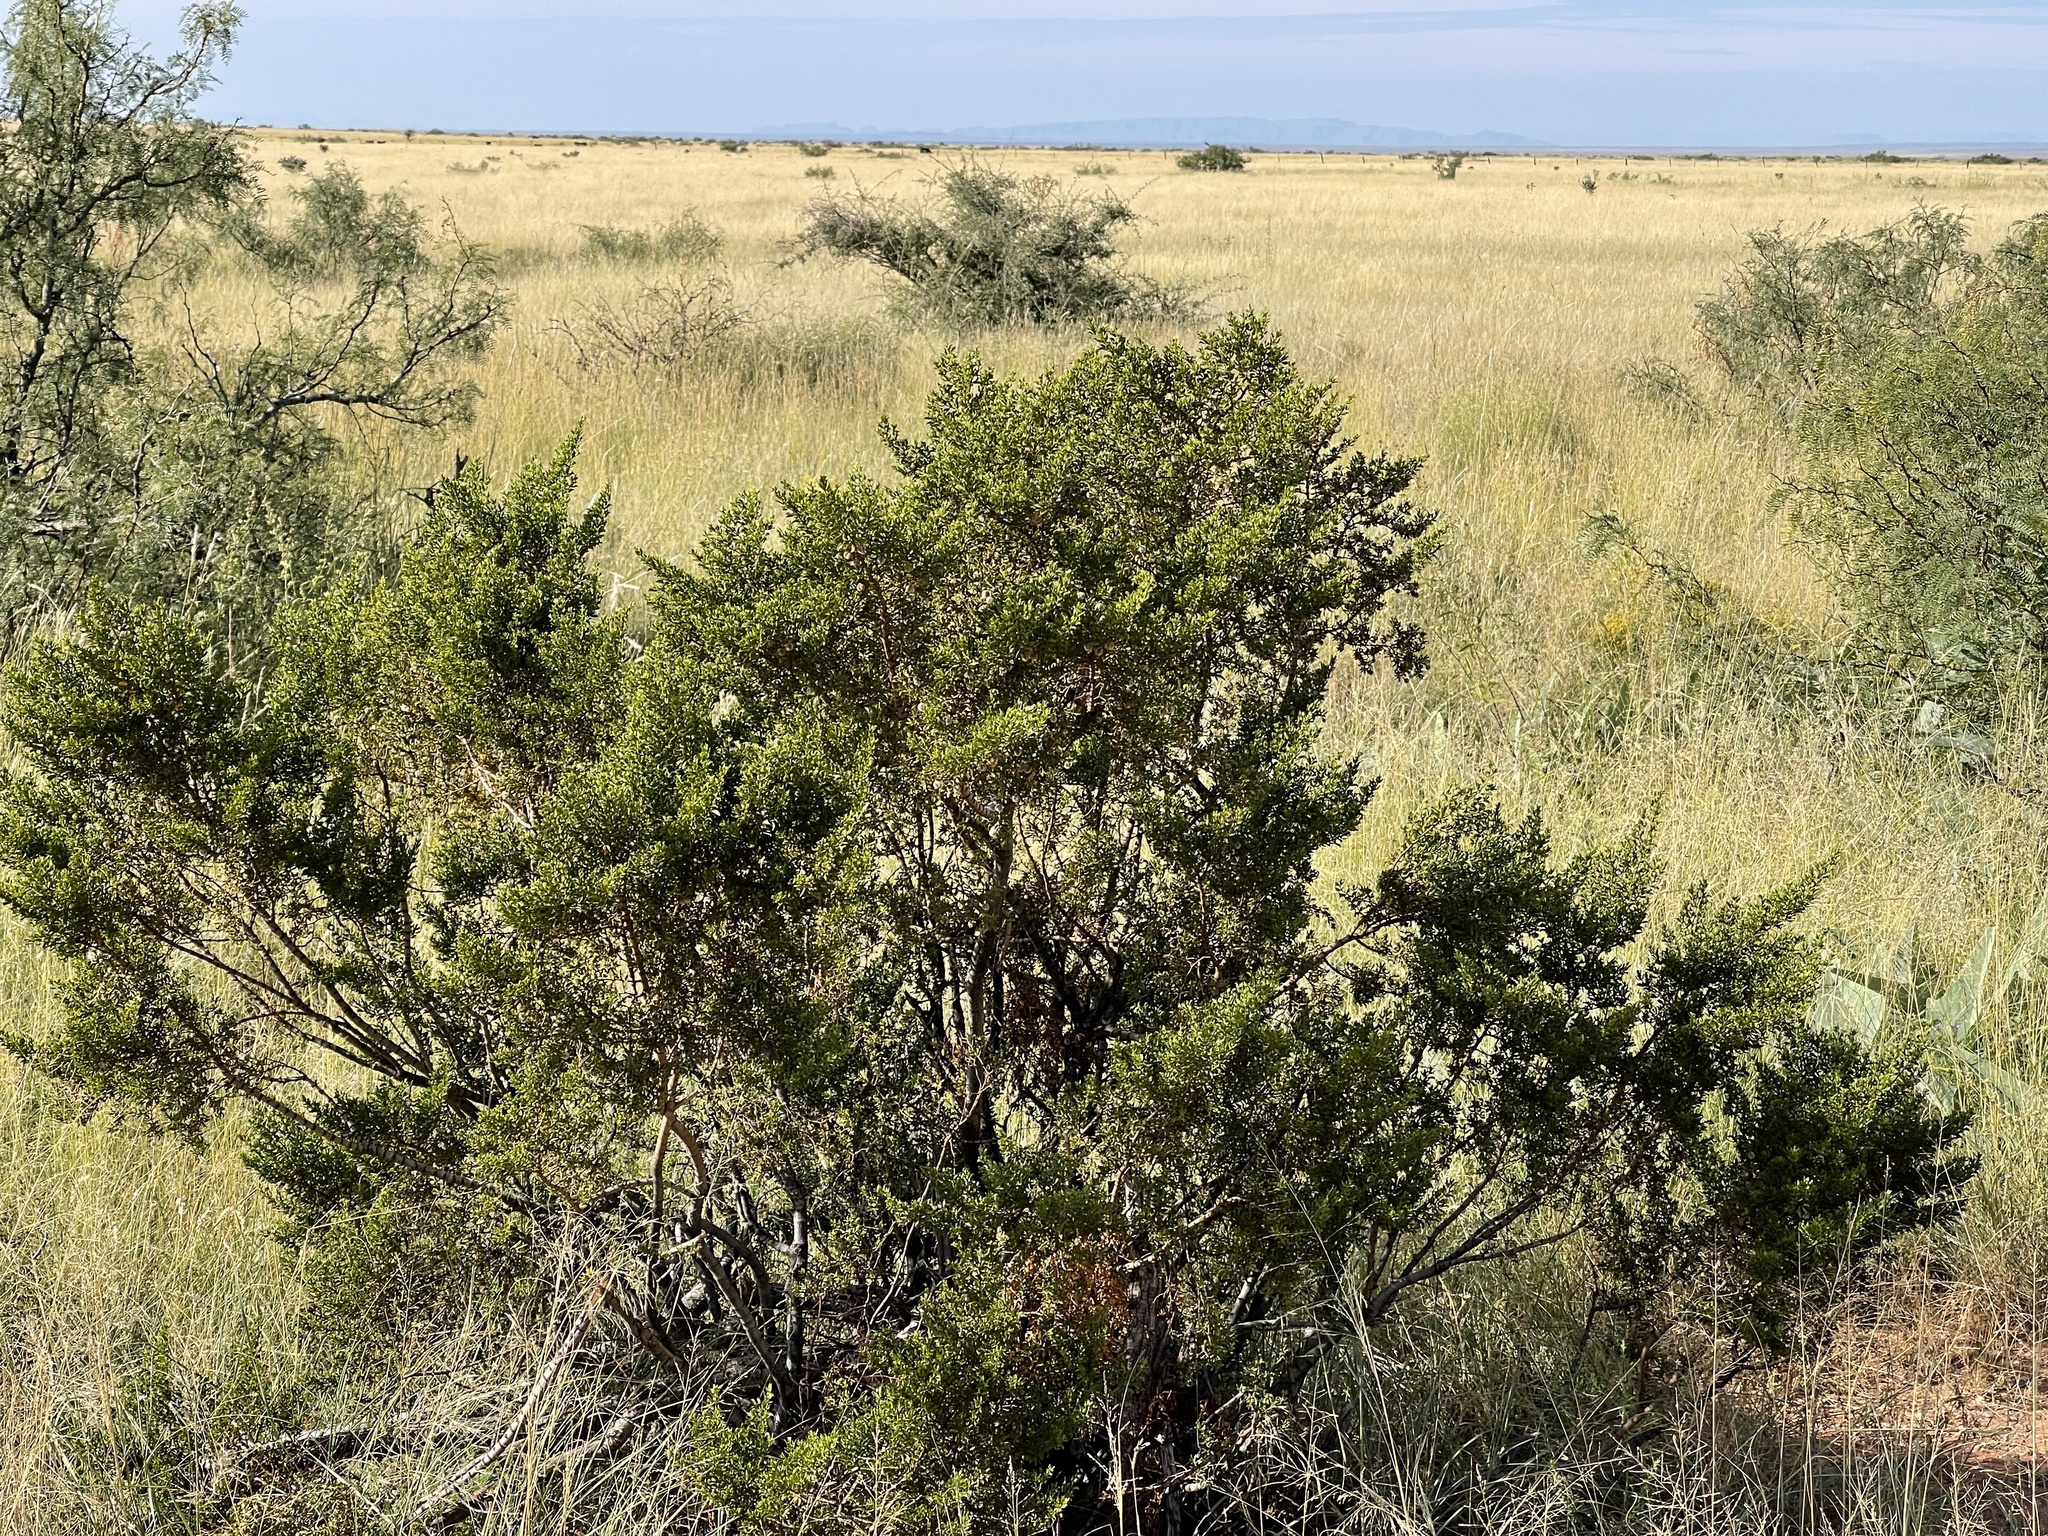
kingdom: Plantae
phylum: Tracheophyta
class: Magnoliopsida
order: Zygophyllales
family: Zygophyllaceae
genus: Larrea
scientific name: Larrea tridentata
